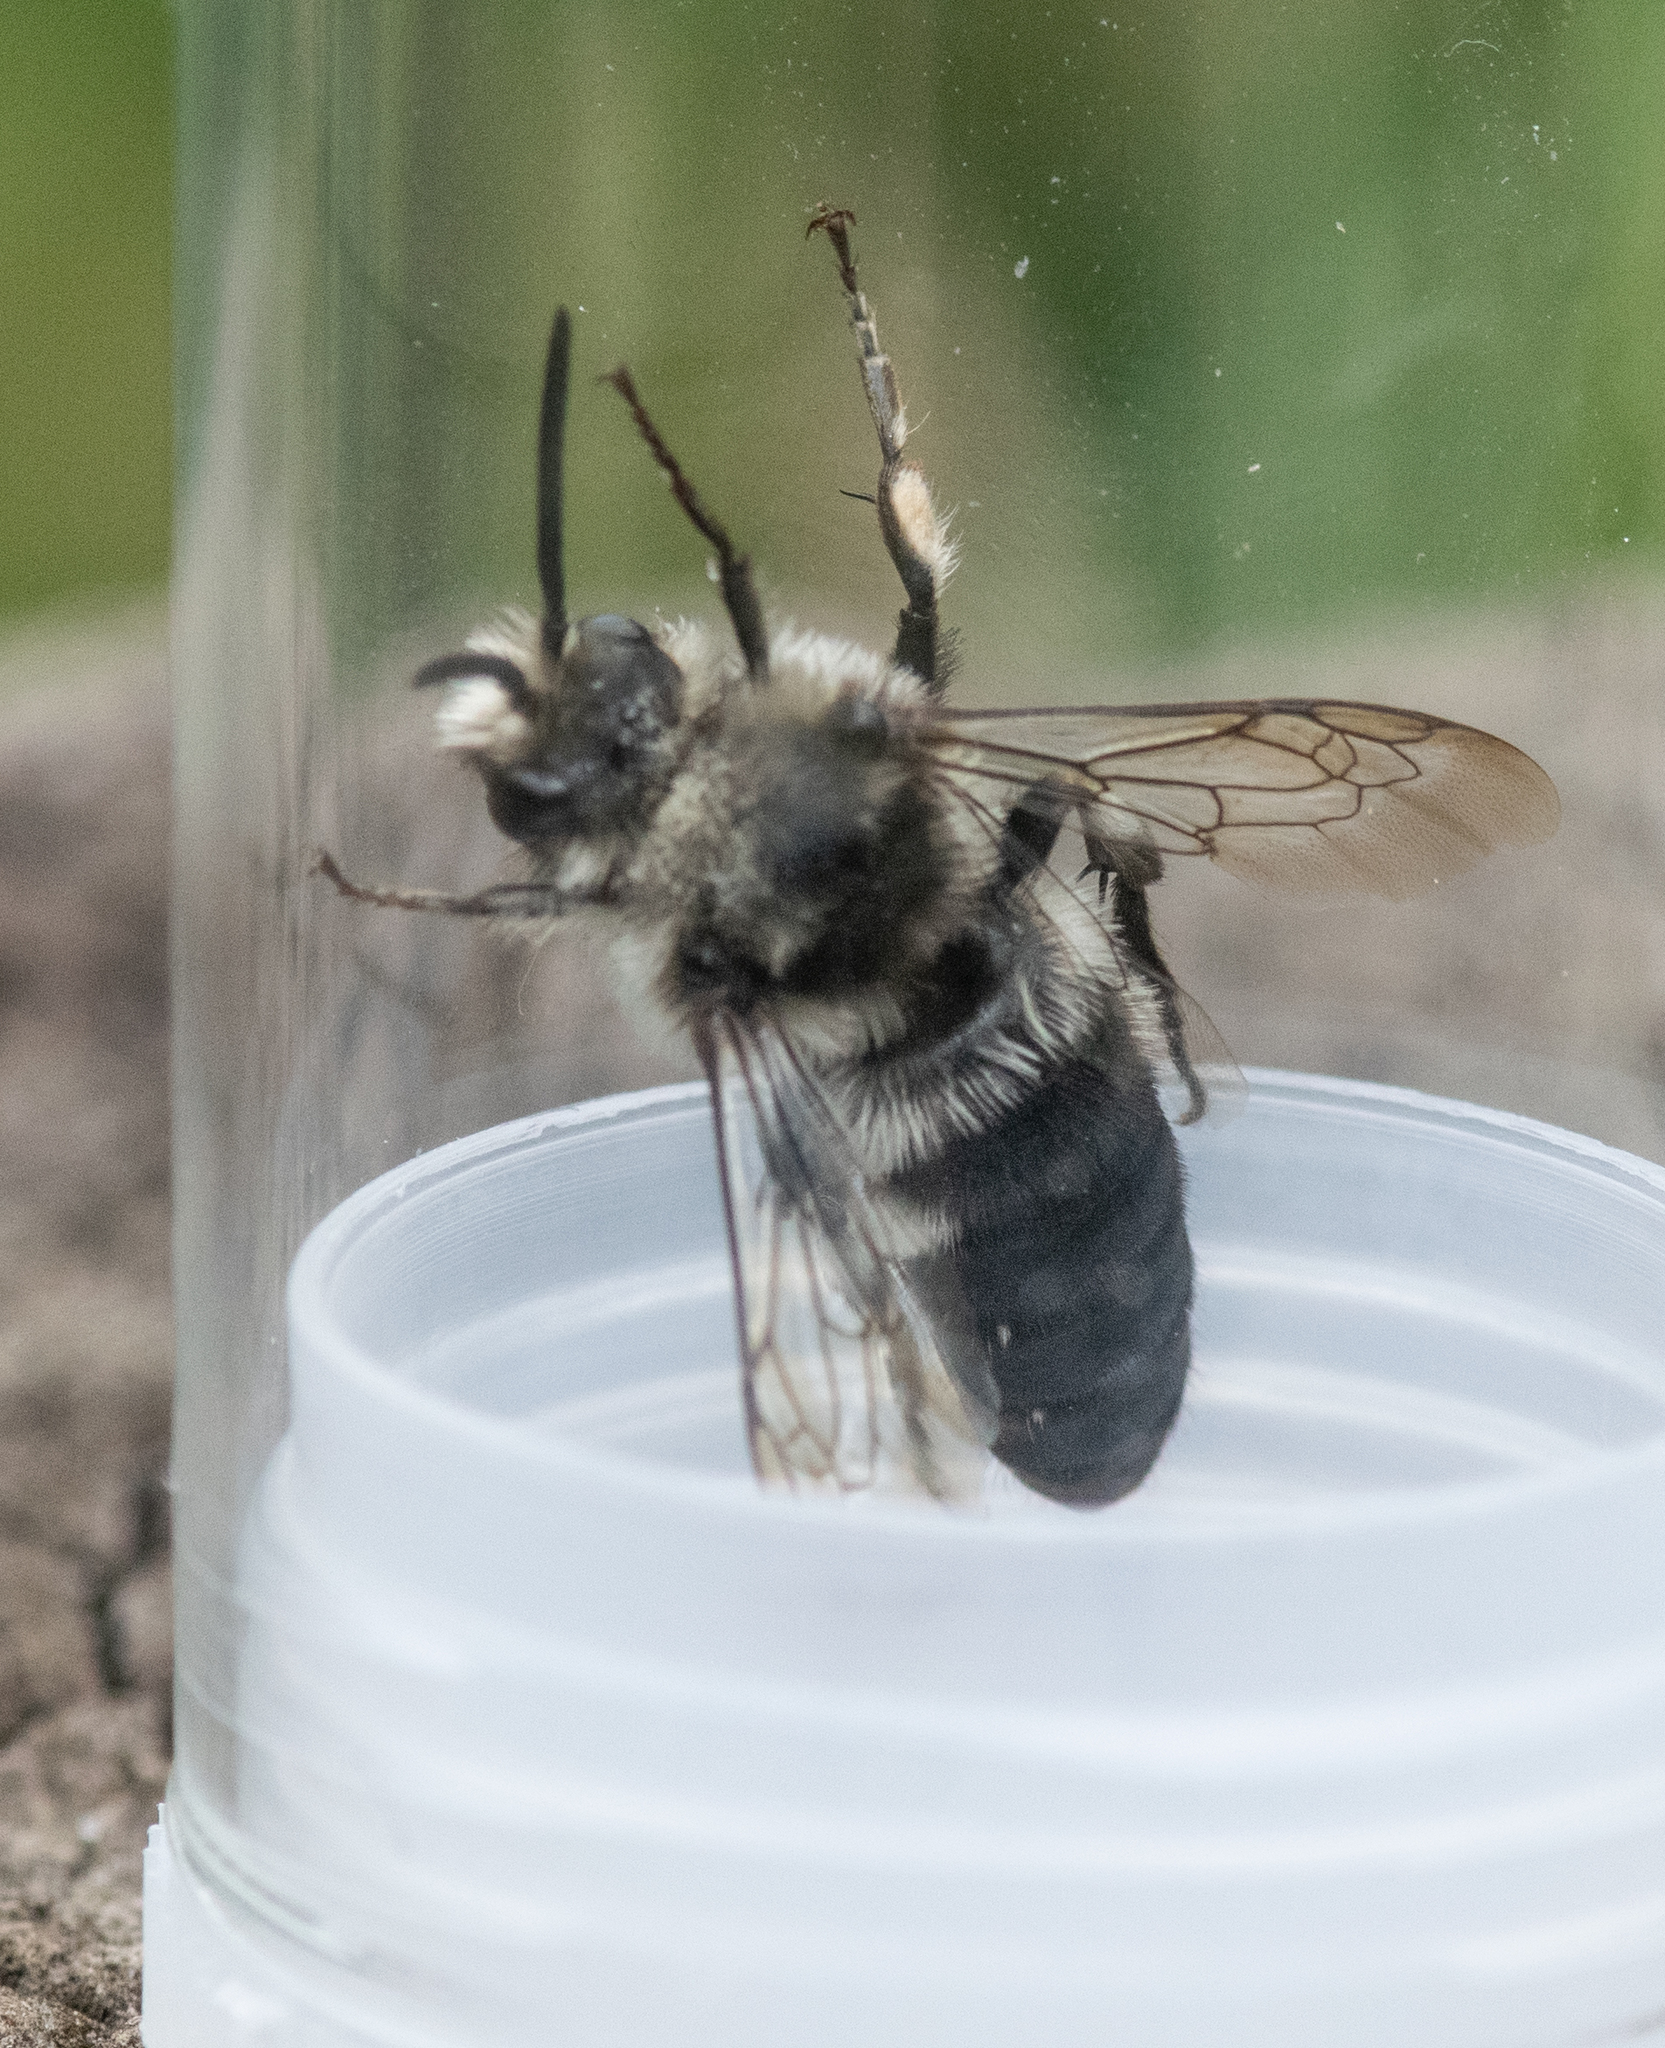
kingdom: Animalia
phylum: Arthropoda
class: Insecta
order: Hymenoptera
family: Apidae
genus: Melecta
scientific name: Melecta albifrons
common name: Common mourning bee
